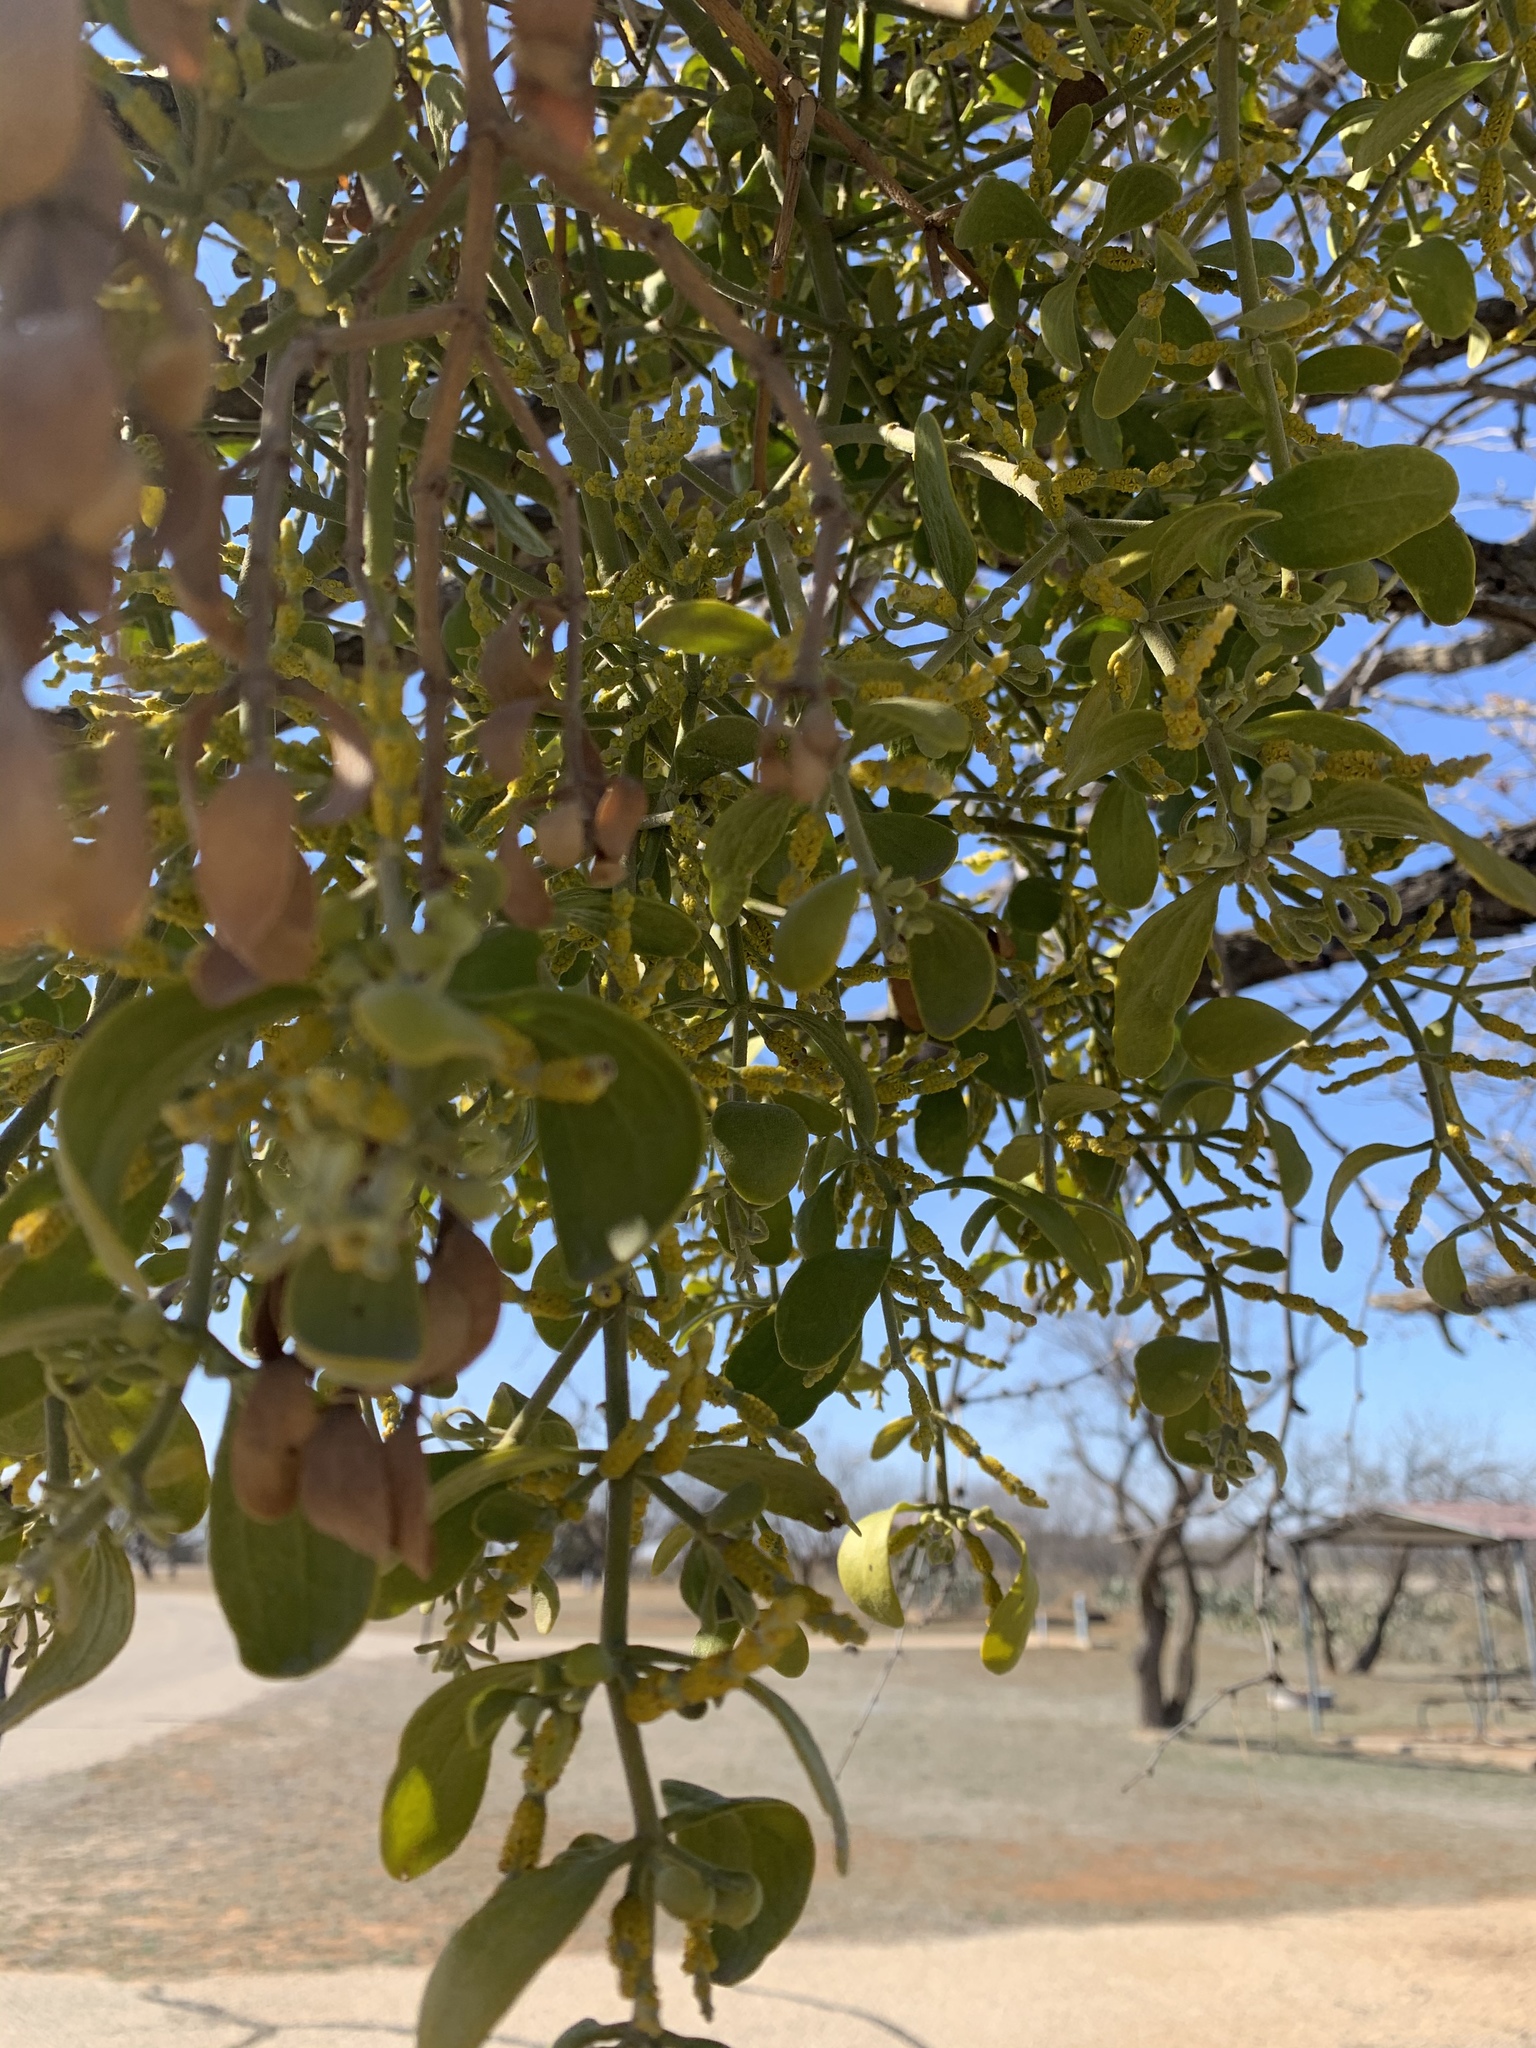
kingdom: Plantae
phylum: Tracheophyta
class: Magnoliopsida
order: Santalales
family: Viscaceae
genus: Phoradendron
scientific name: Phoradendron leucarpum
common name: Pacific mistletoe
